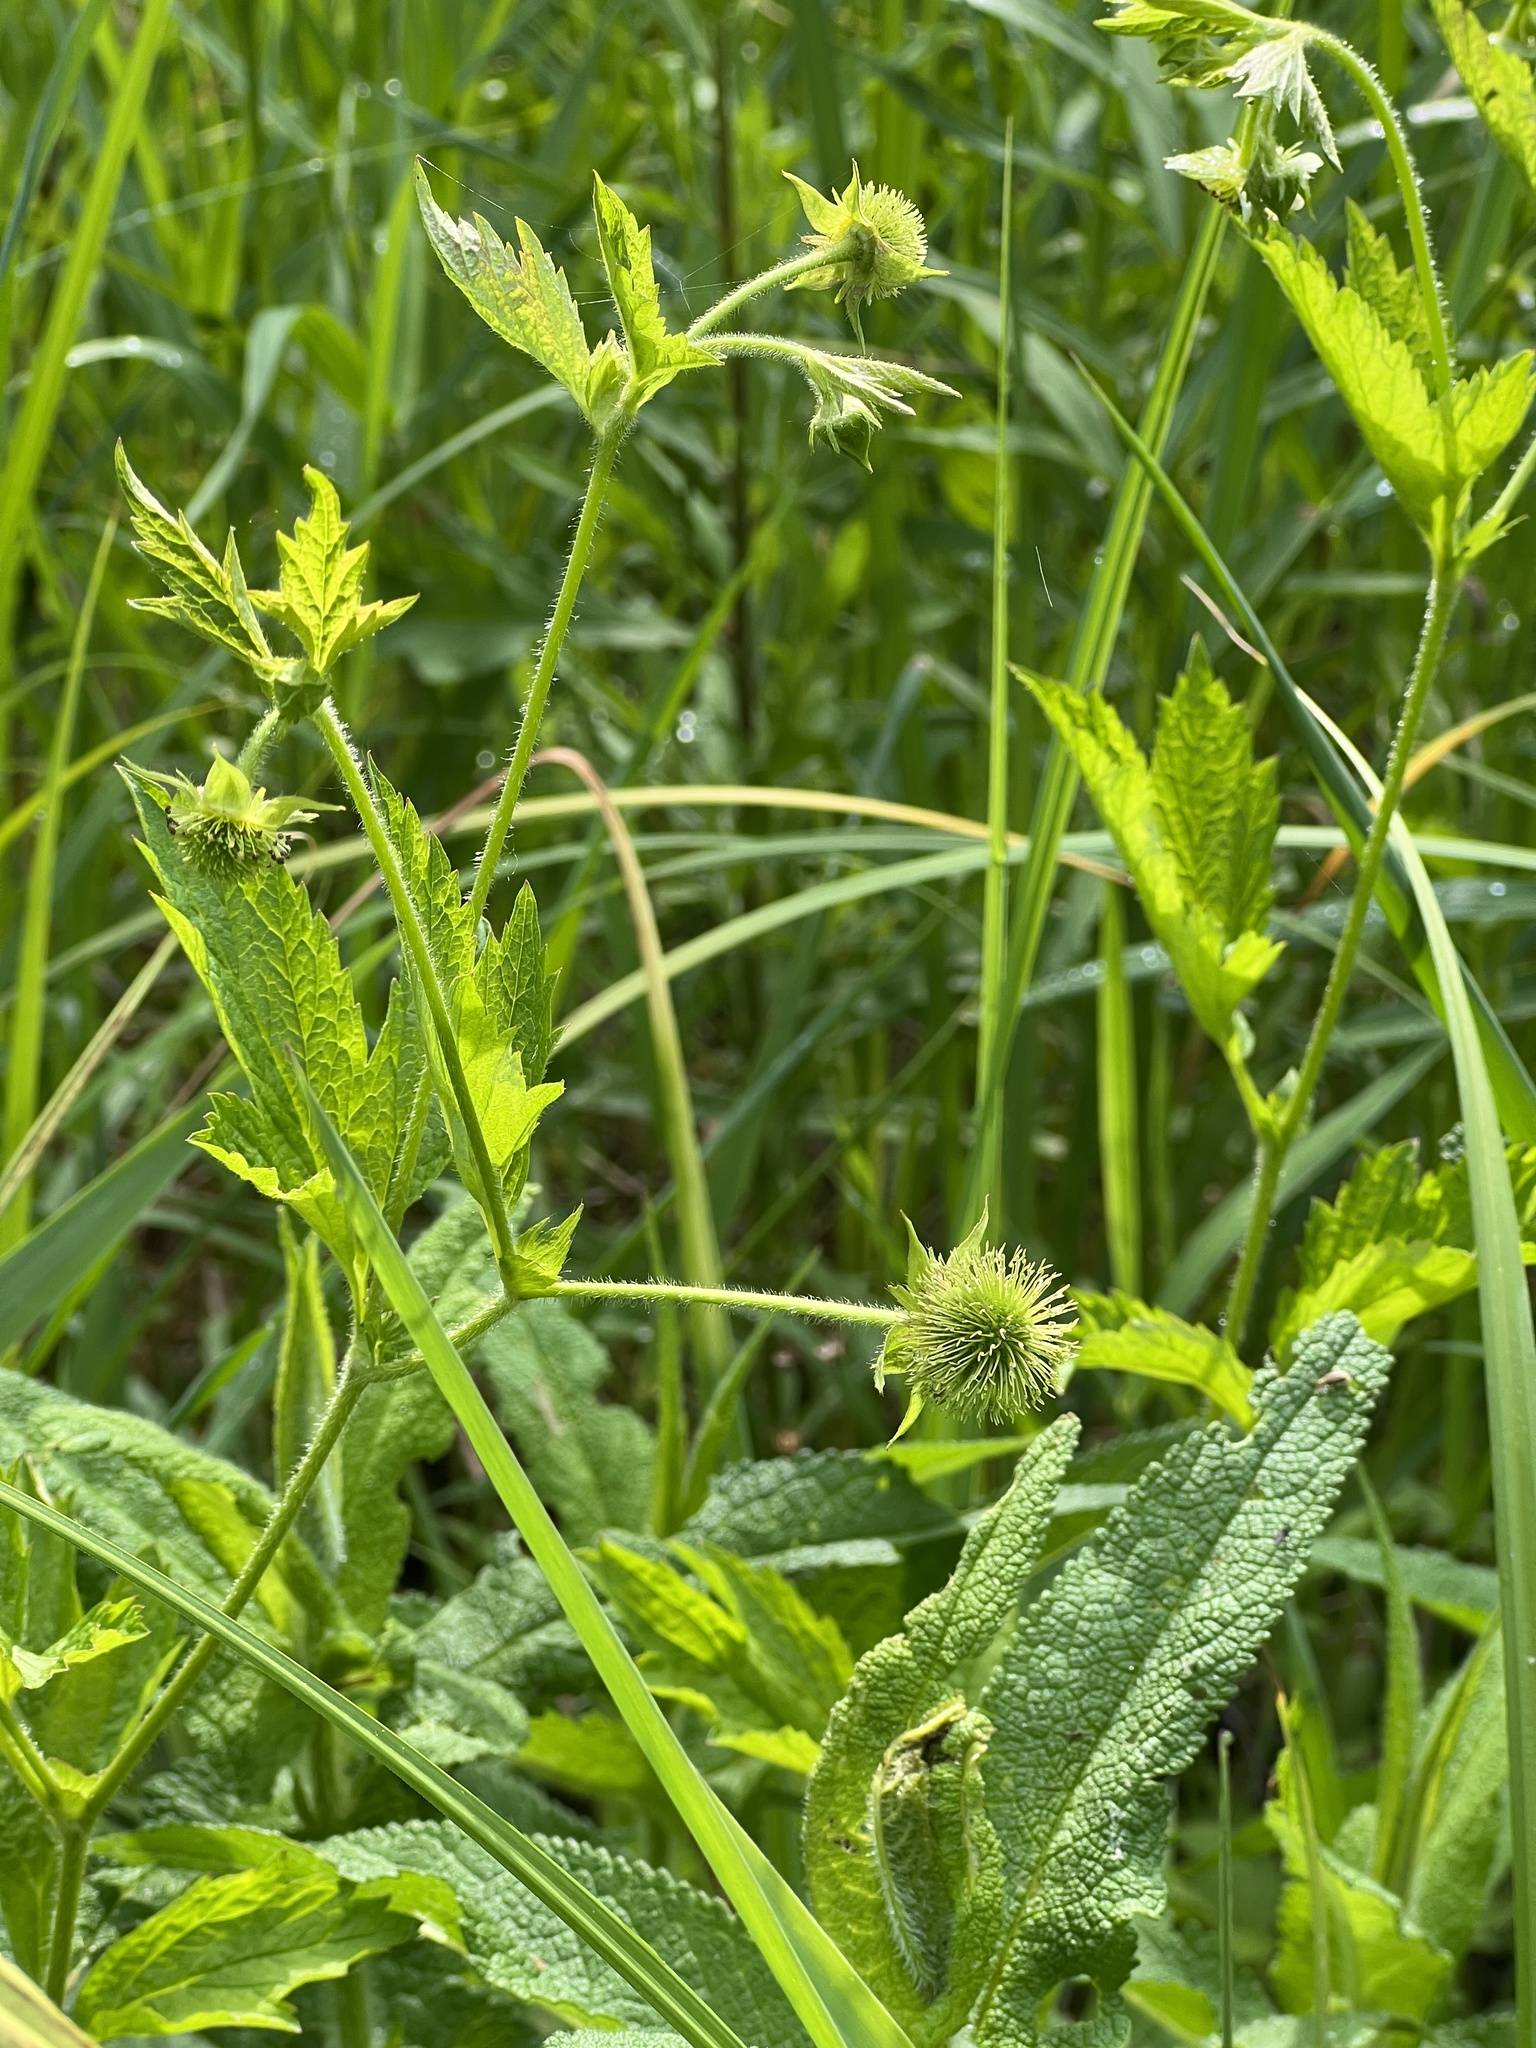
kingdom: Plantae
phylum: Tracheophyta
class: Magnoliopsida
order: Rosales
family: Rosaceae
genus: Geum
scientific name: Geum laciniatum
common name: Rough avens
